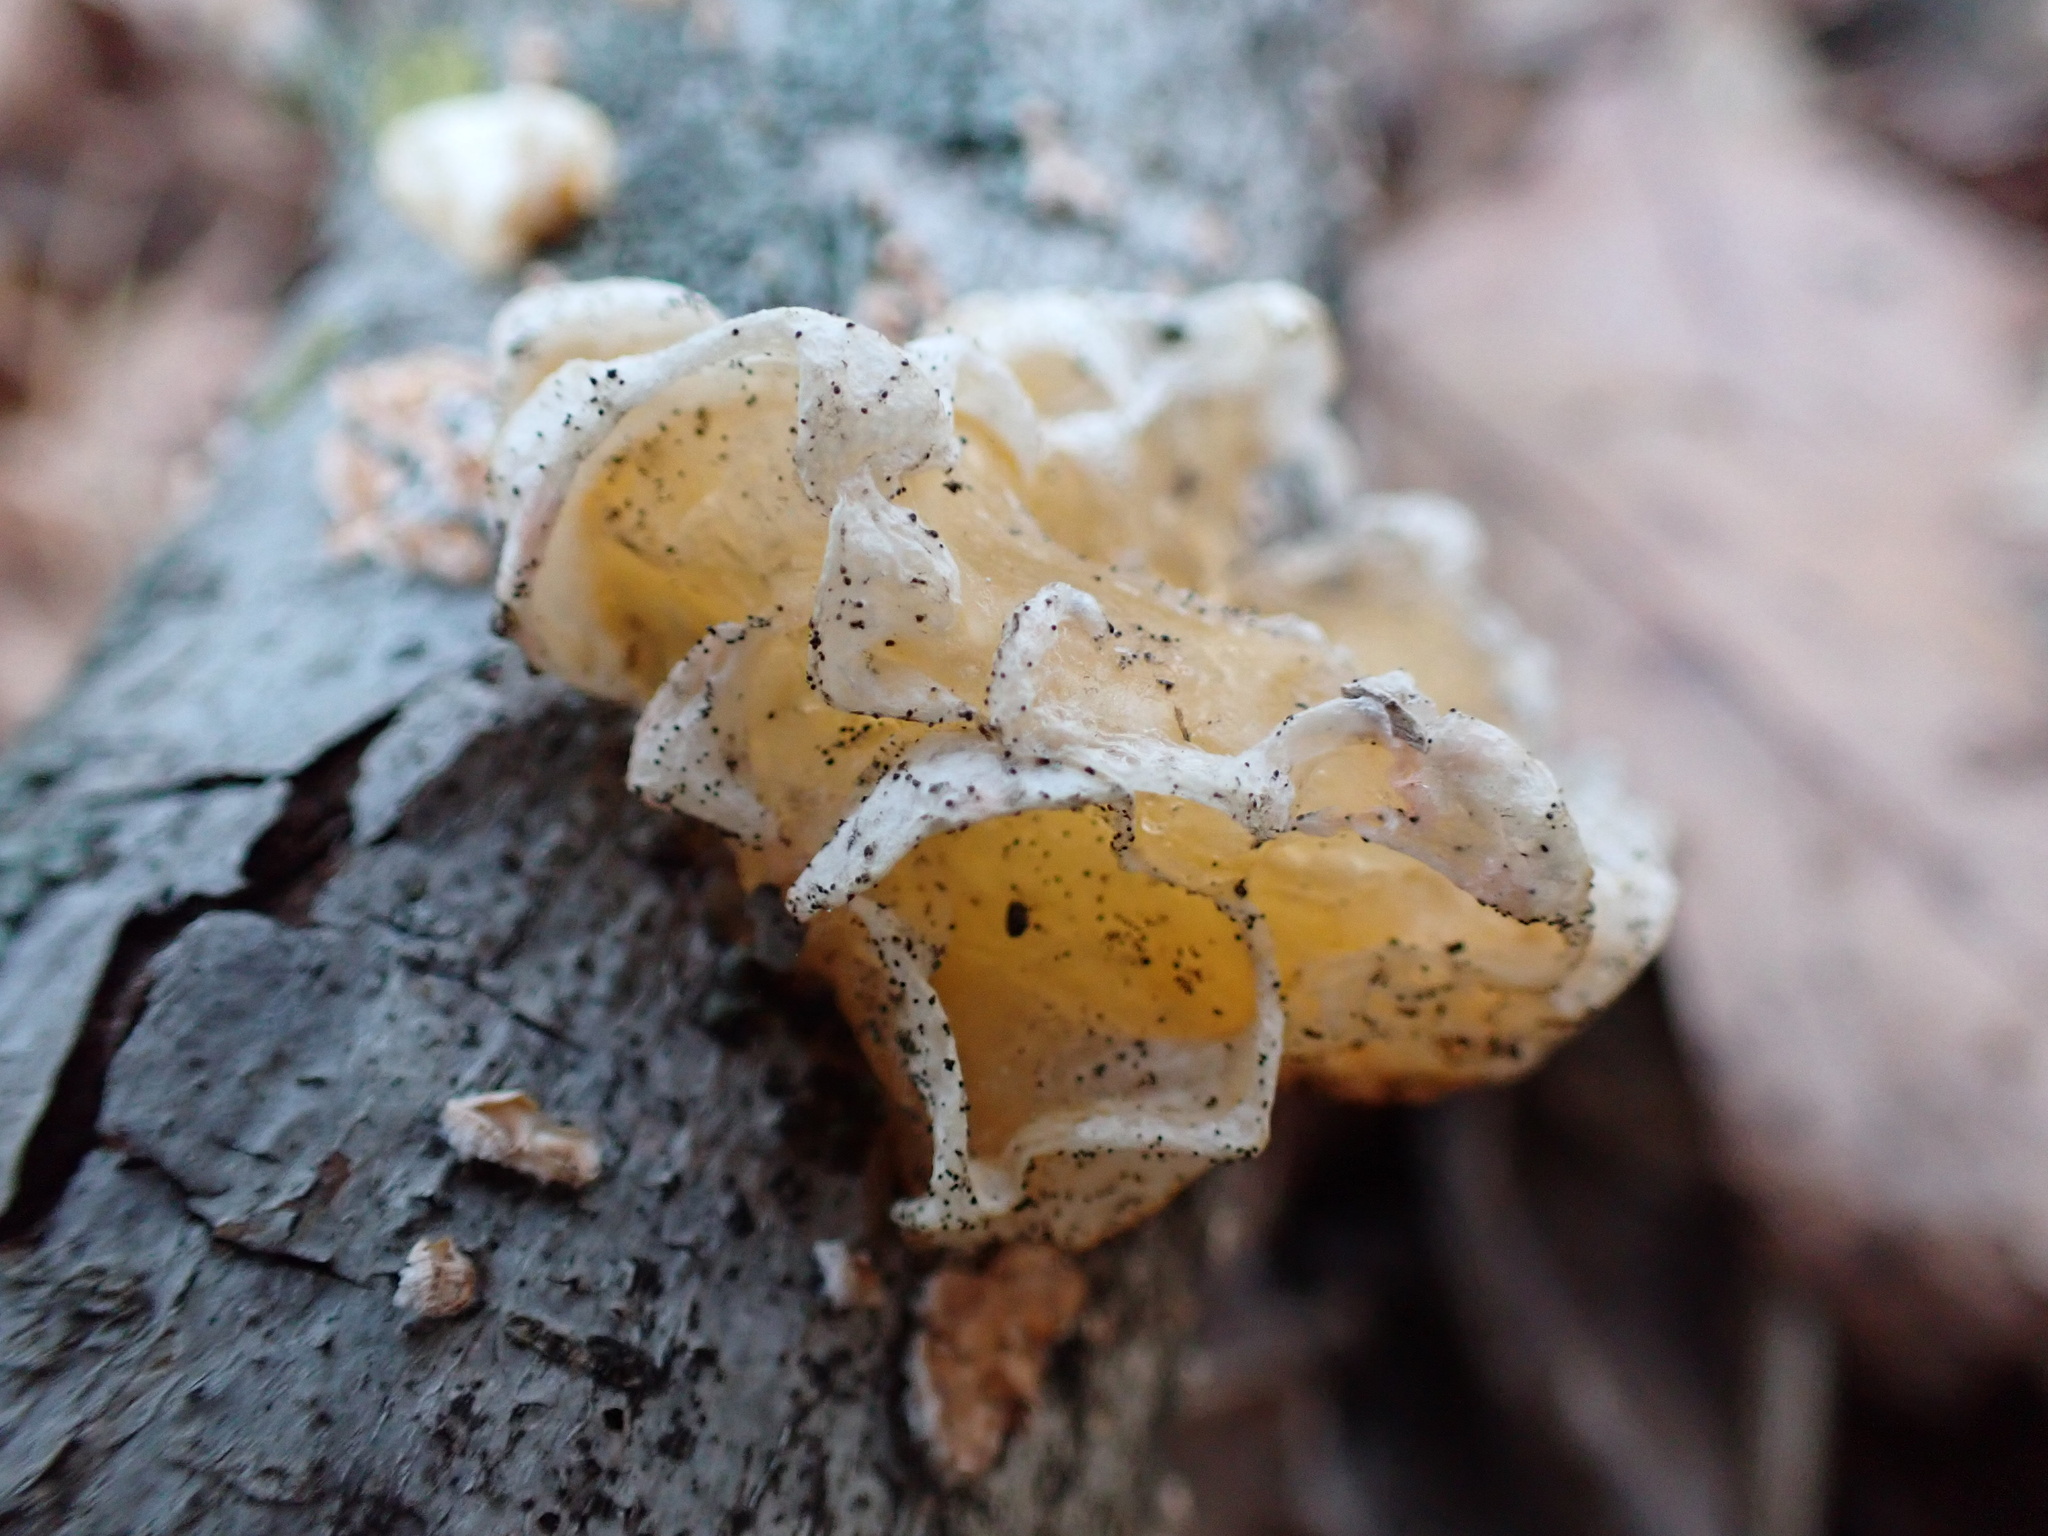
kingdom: Fungi
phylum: Basidiomycota
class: Tremellomycetes
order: Tremellales
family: Naemateliaceae
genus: Naematelia
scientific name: Naematelia aurantia
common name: Golden ear
